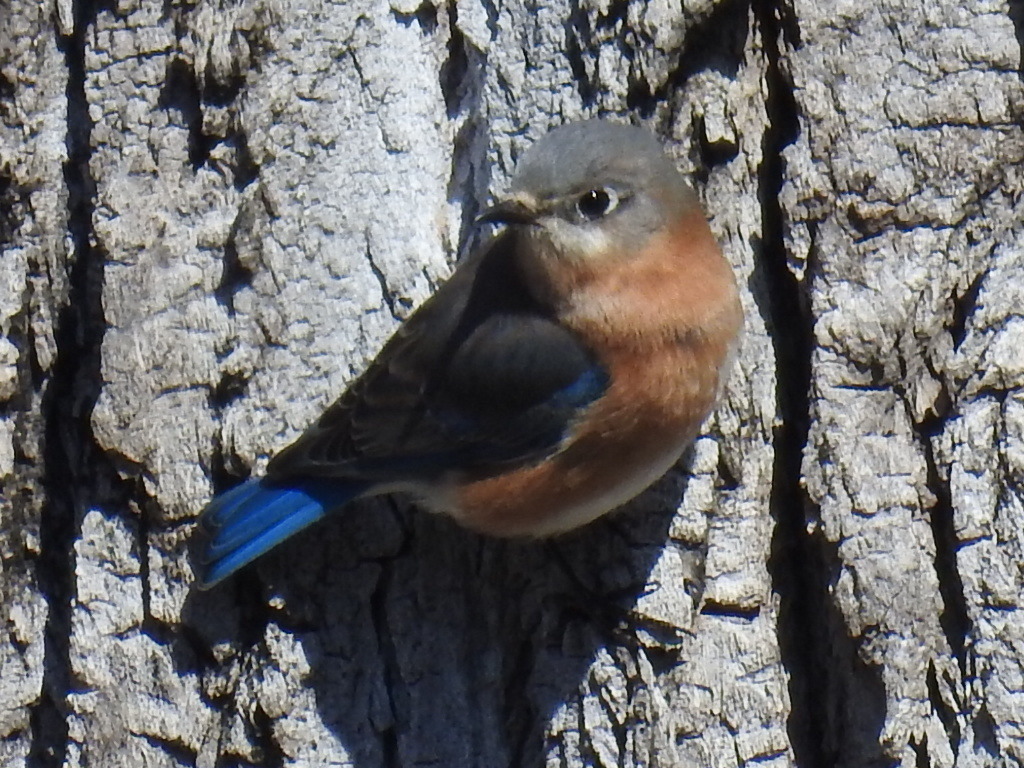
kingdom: Animalia
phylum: Chordata
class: Aves
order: Passeriformes
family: Turdidae
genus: Sialia
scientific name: Sialia sialis
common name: Eastern bluebird
